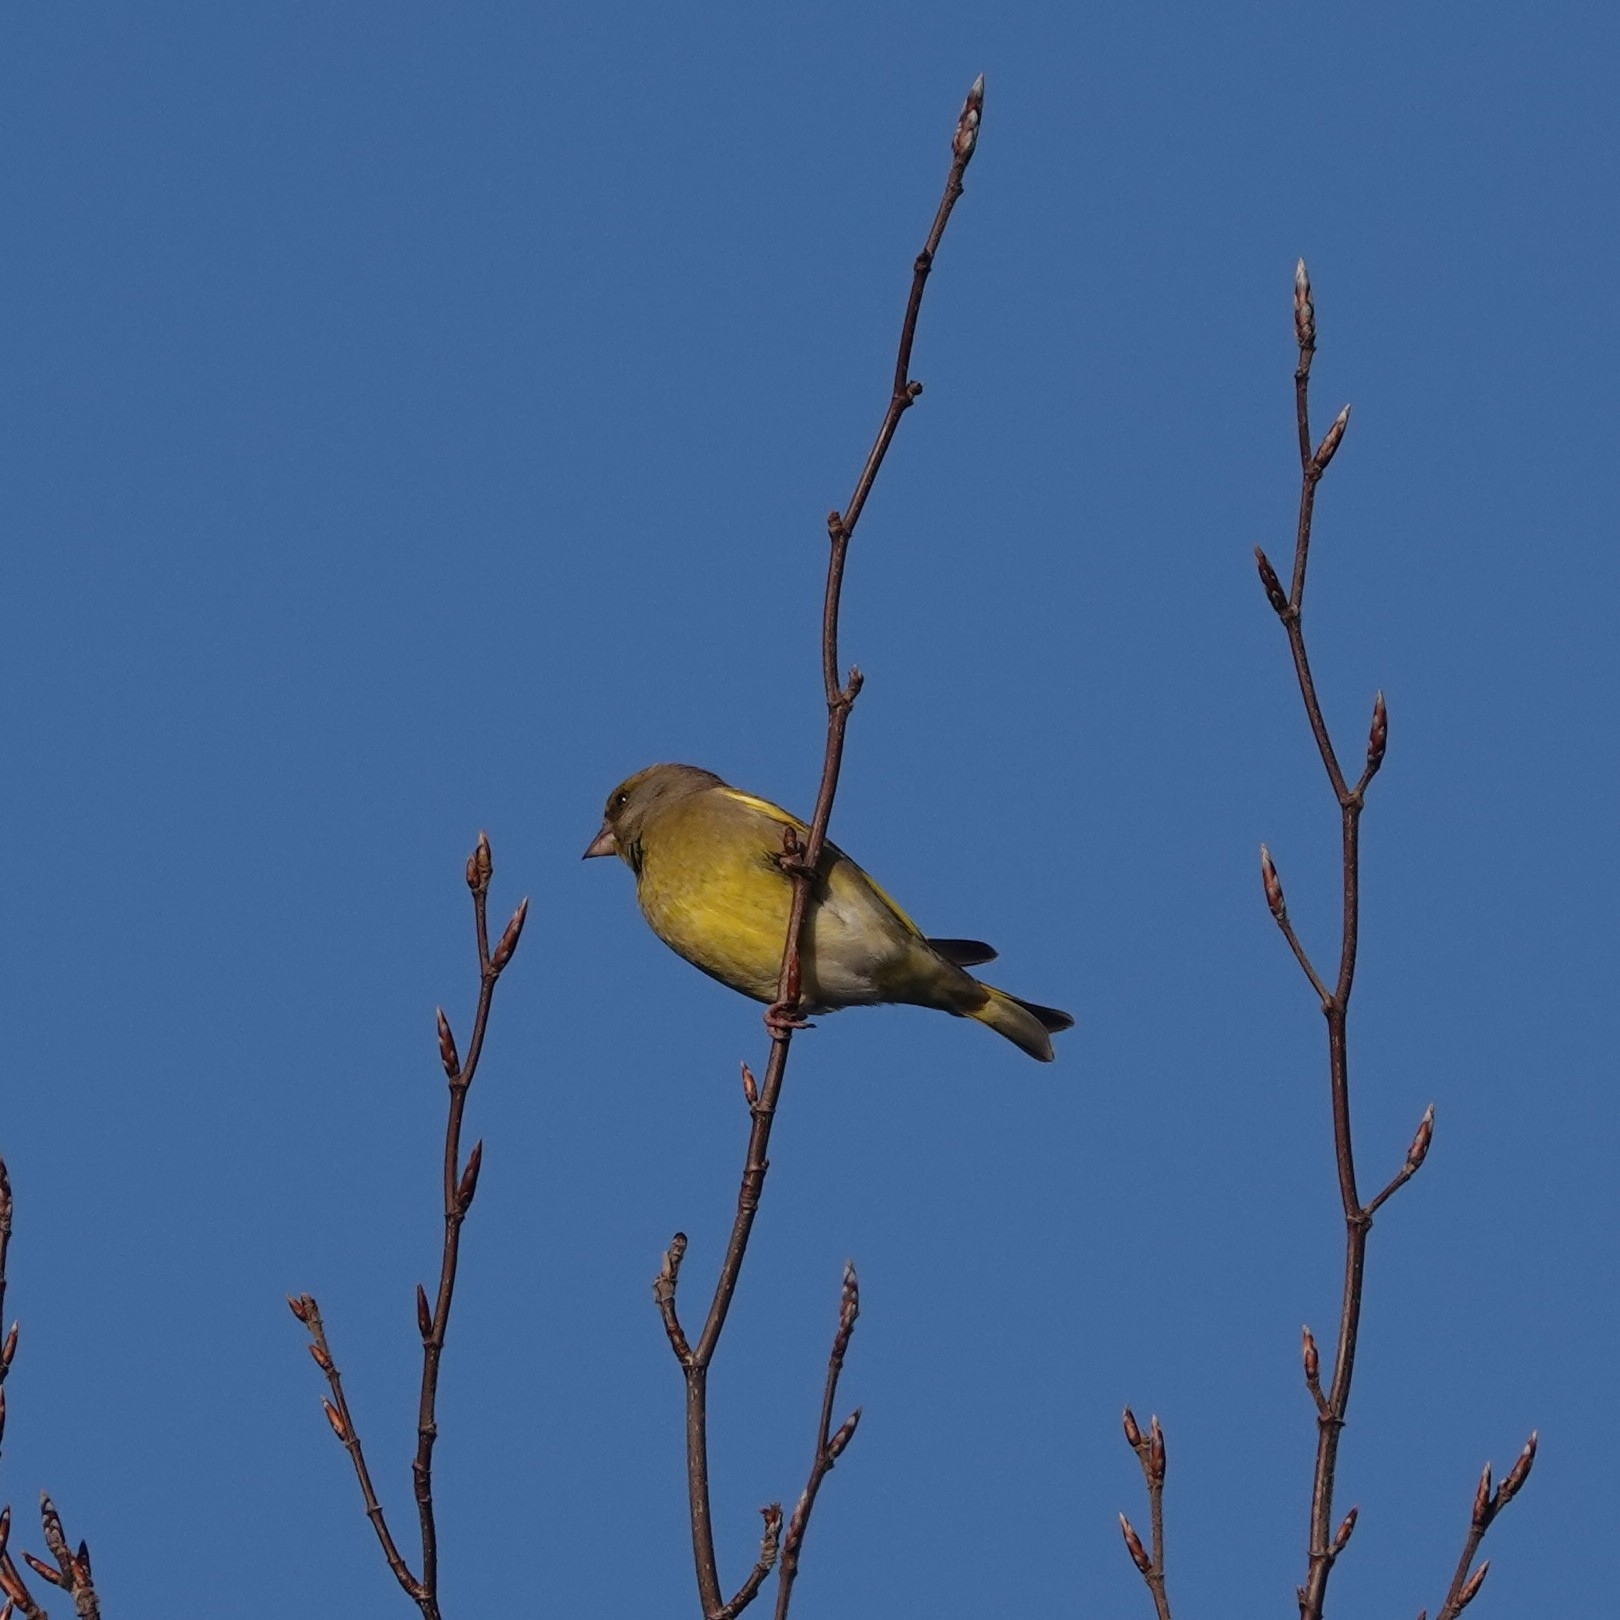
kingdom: Plantae
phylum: Tracheophyta
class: Liliopsida
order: Poales
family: Poaceae
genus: Chloris
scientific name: Chloris chloris
